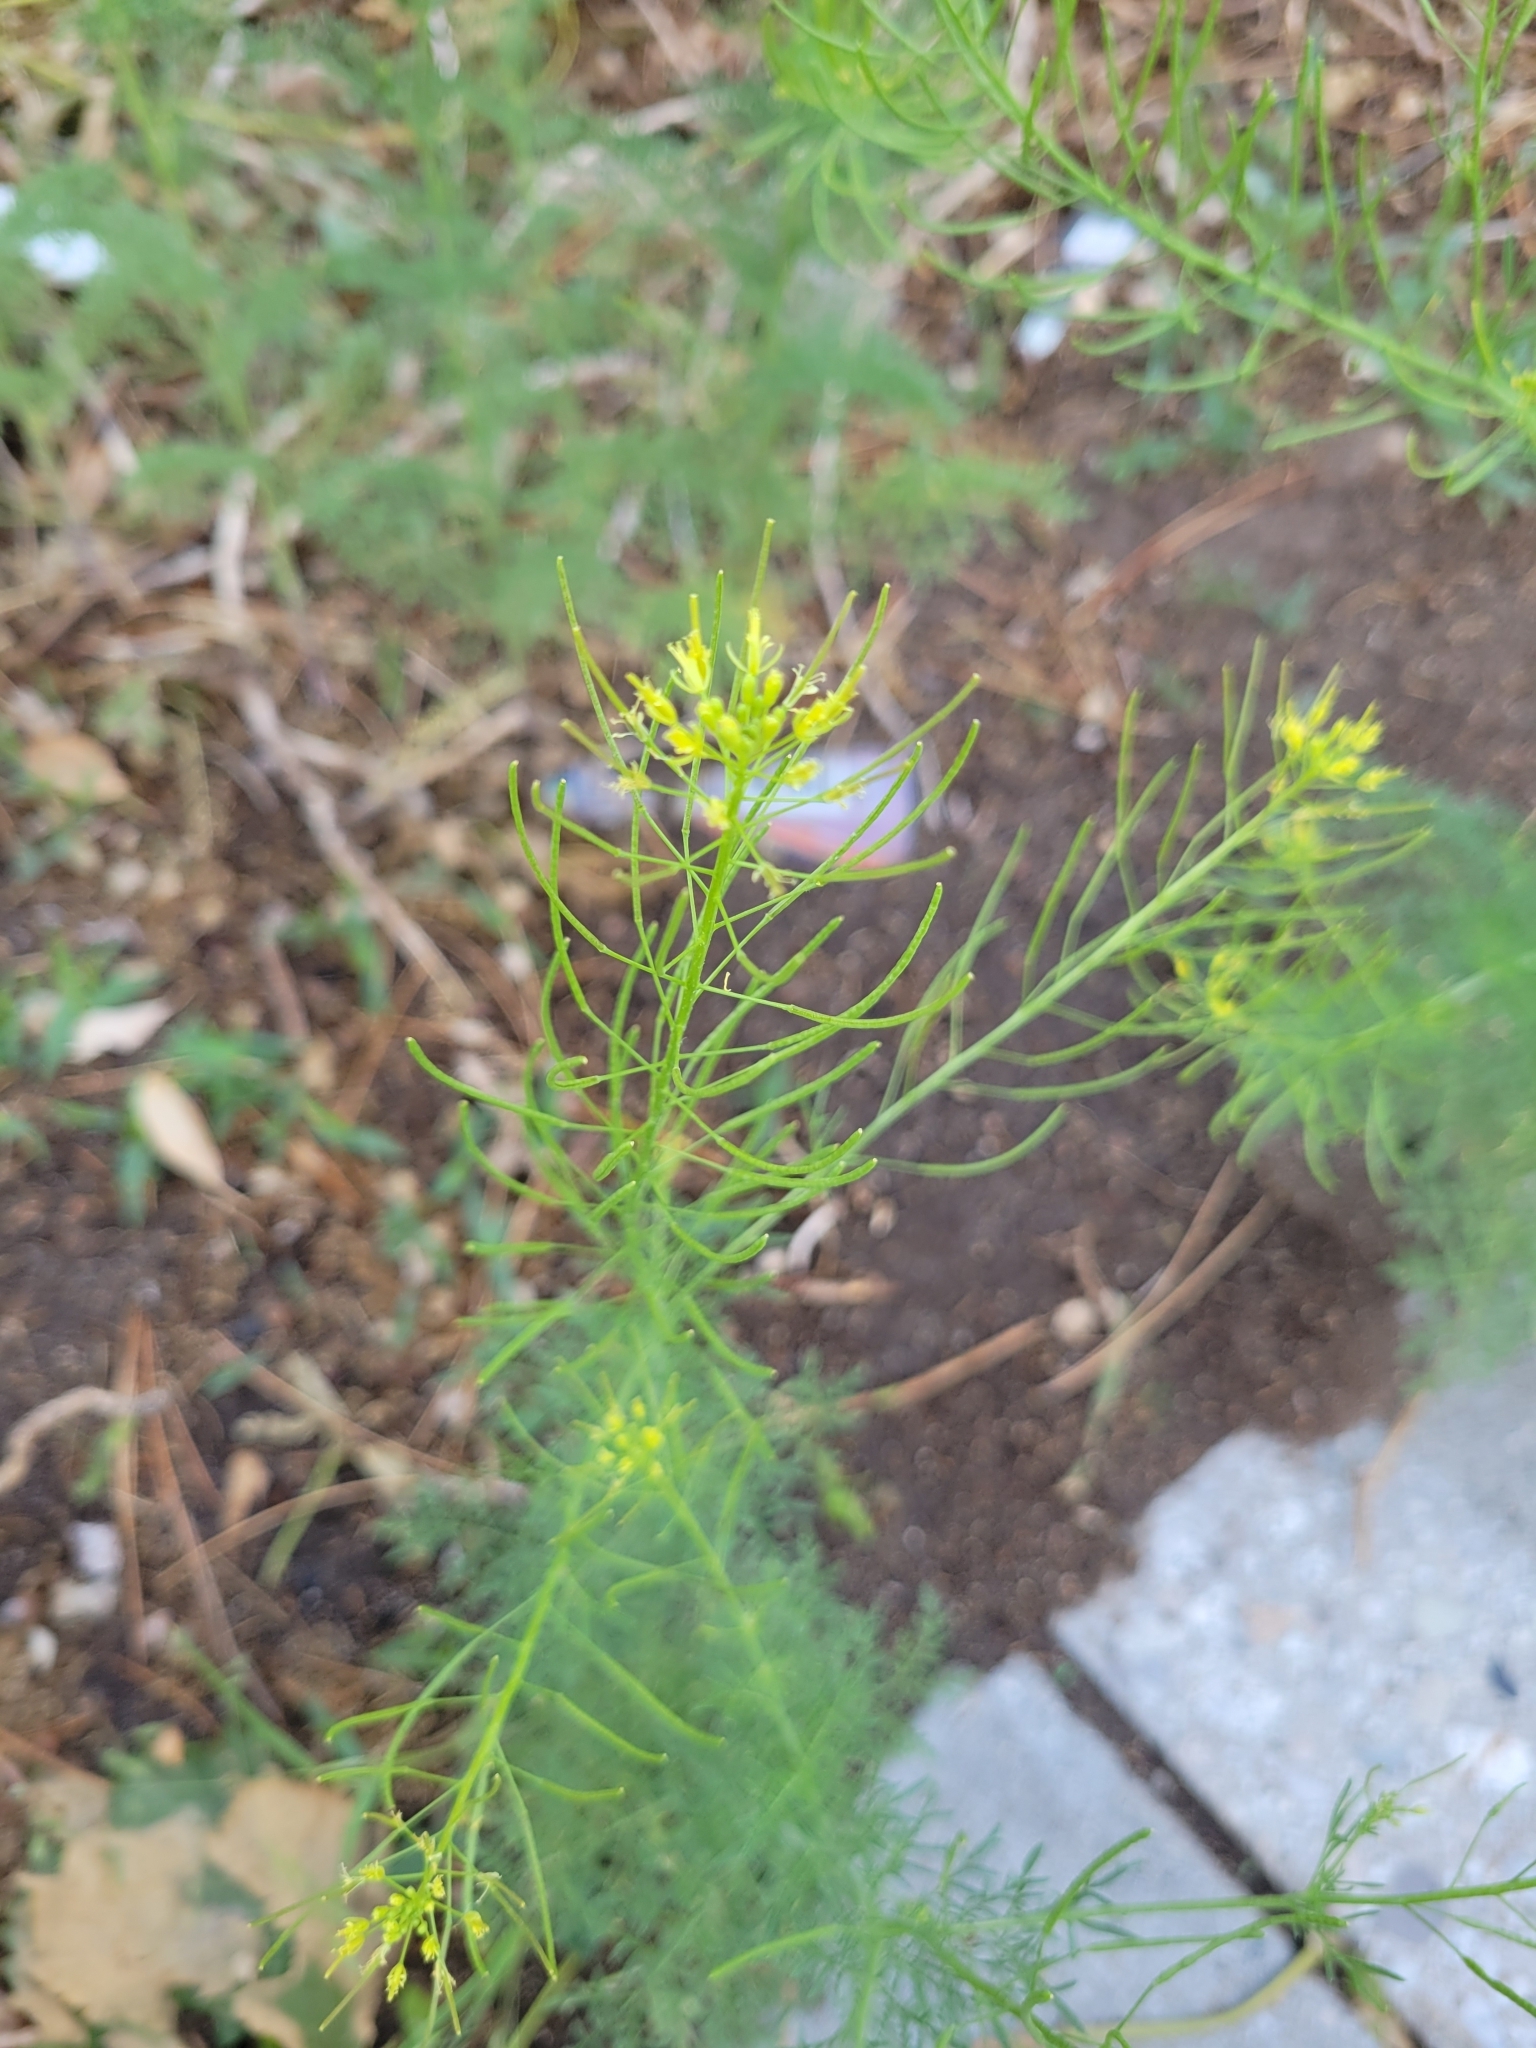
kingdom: Plantae
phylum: Tracheophyta
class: Magnoliopsida
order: Brassicales
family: Brassicaceae
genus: Descurainia
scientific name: Descurainia sophia
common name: Flixweed
